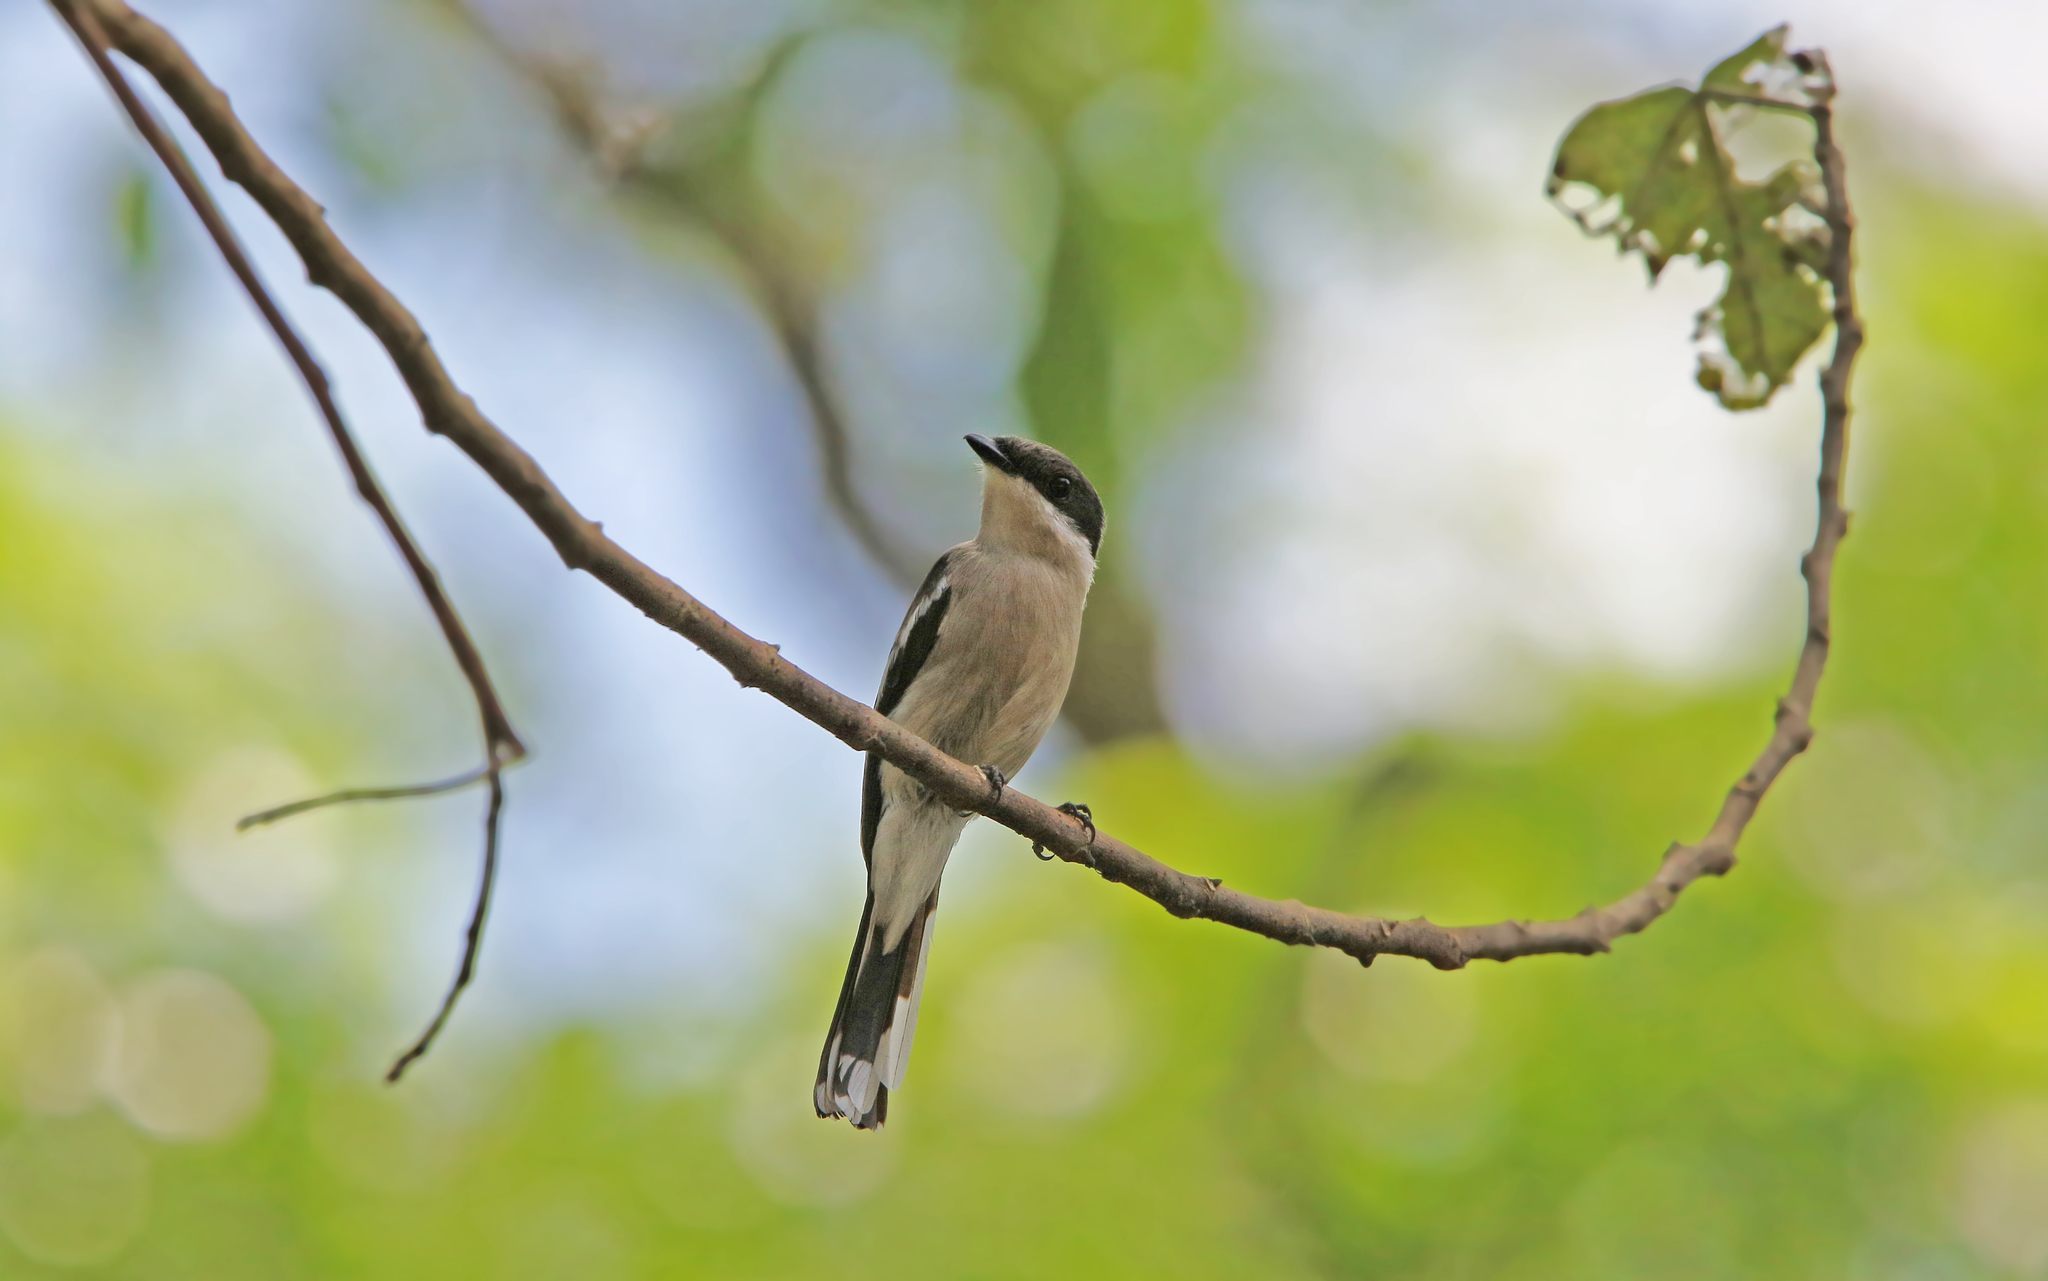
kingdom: Animalia
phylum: Chordata
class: Aves
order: Passeriformes
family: Tephrodornithidae
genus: Hemipus
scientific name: Hemipus picatus
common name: Bar-winged flycatcher-shrike
